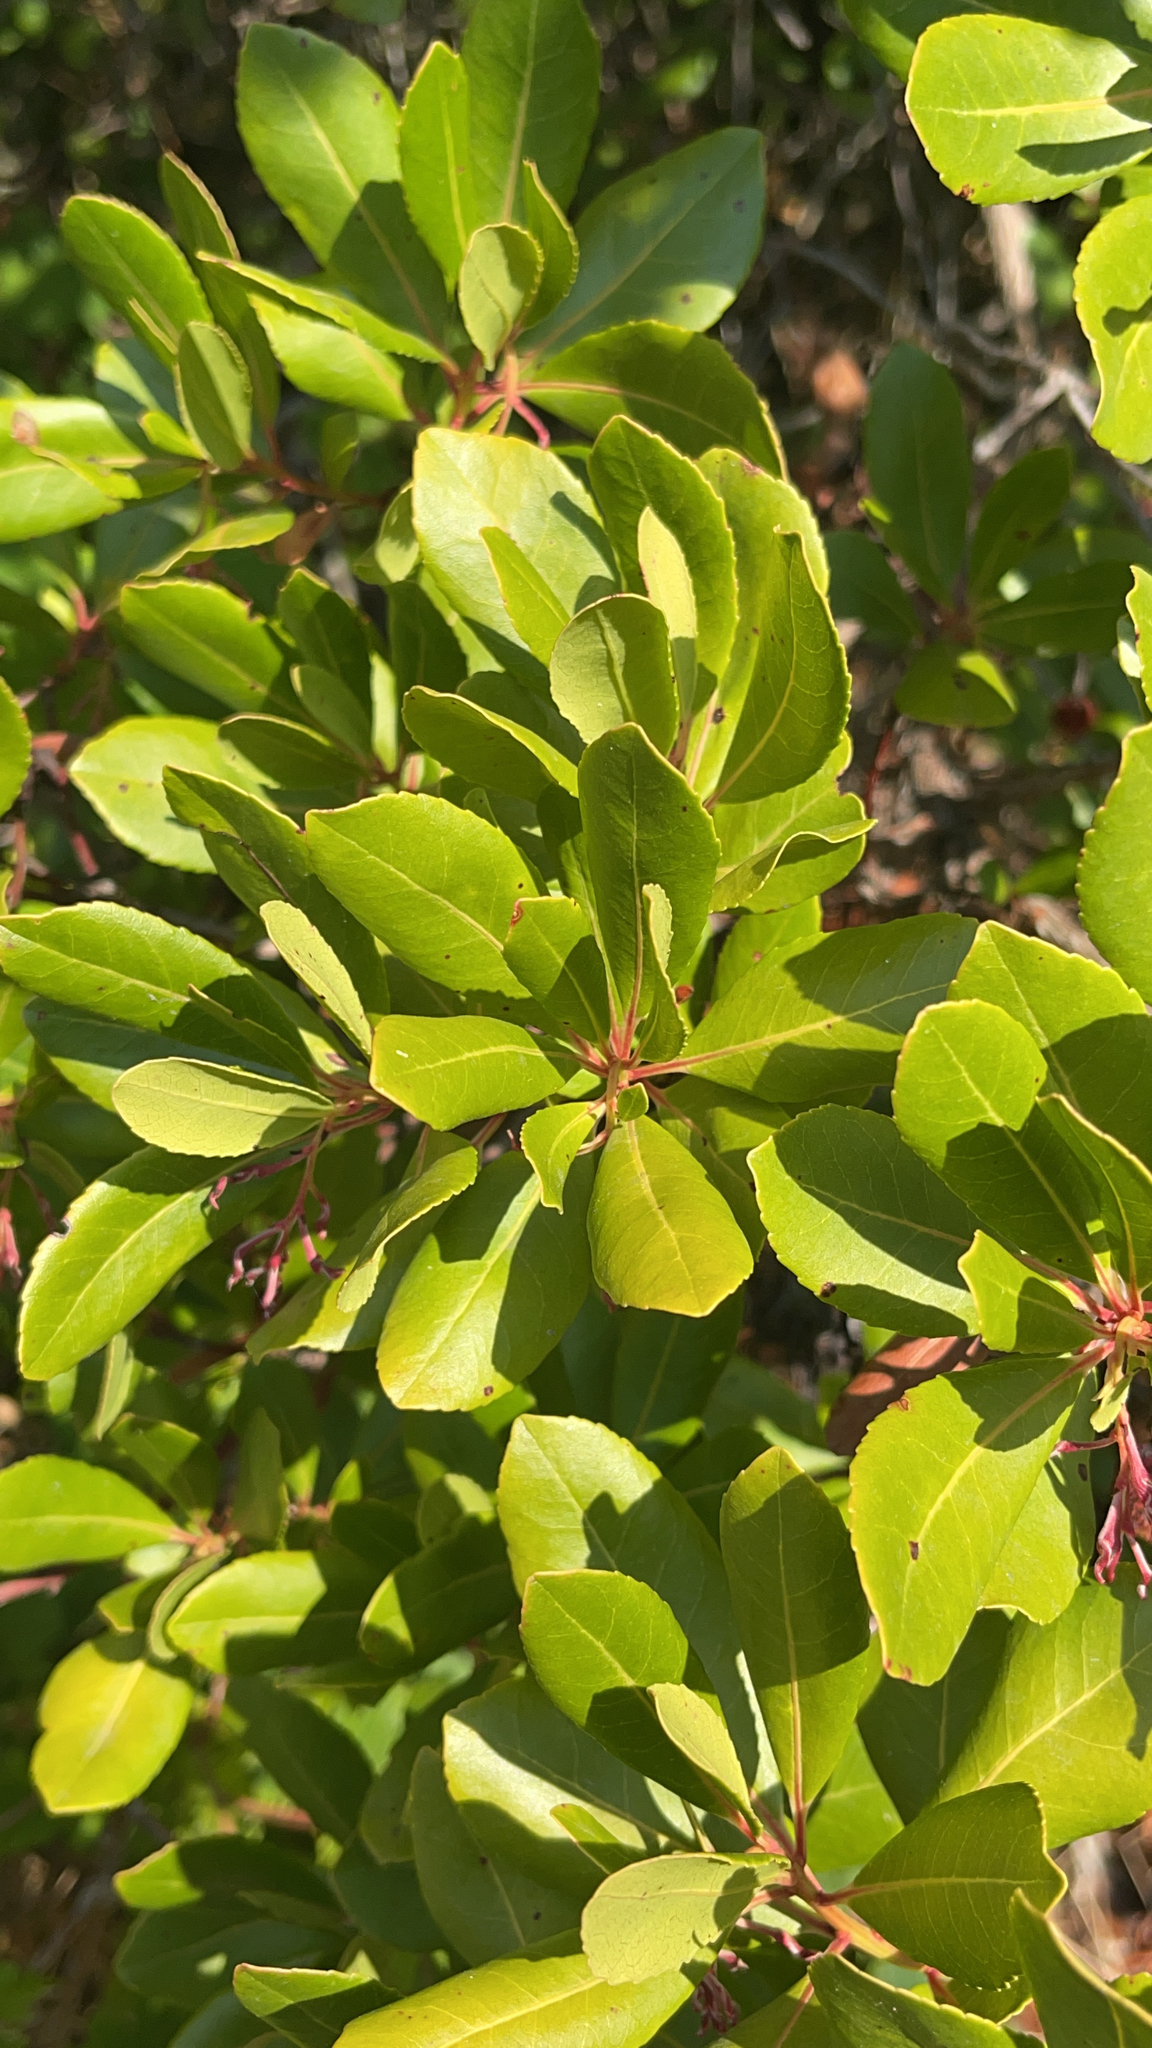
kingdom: Plantae
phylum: Tracheophyta
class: Magnoliopsida
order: Ericales
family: Ericaceae
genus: Arbutus
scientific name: Arbutus unedo
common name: Strawberry-tree
